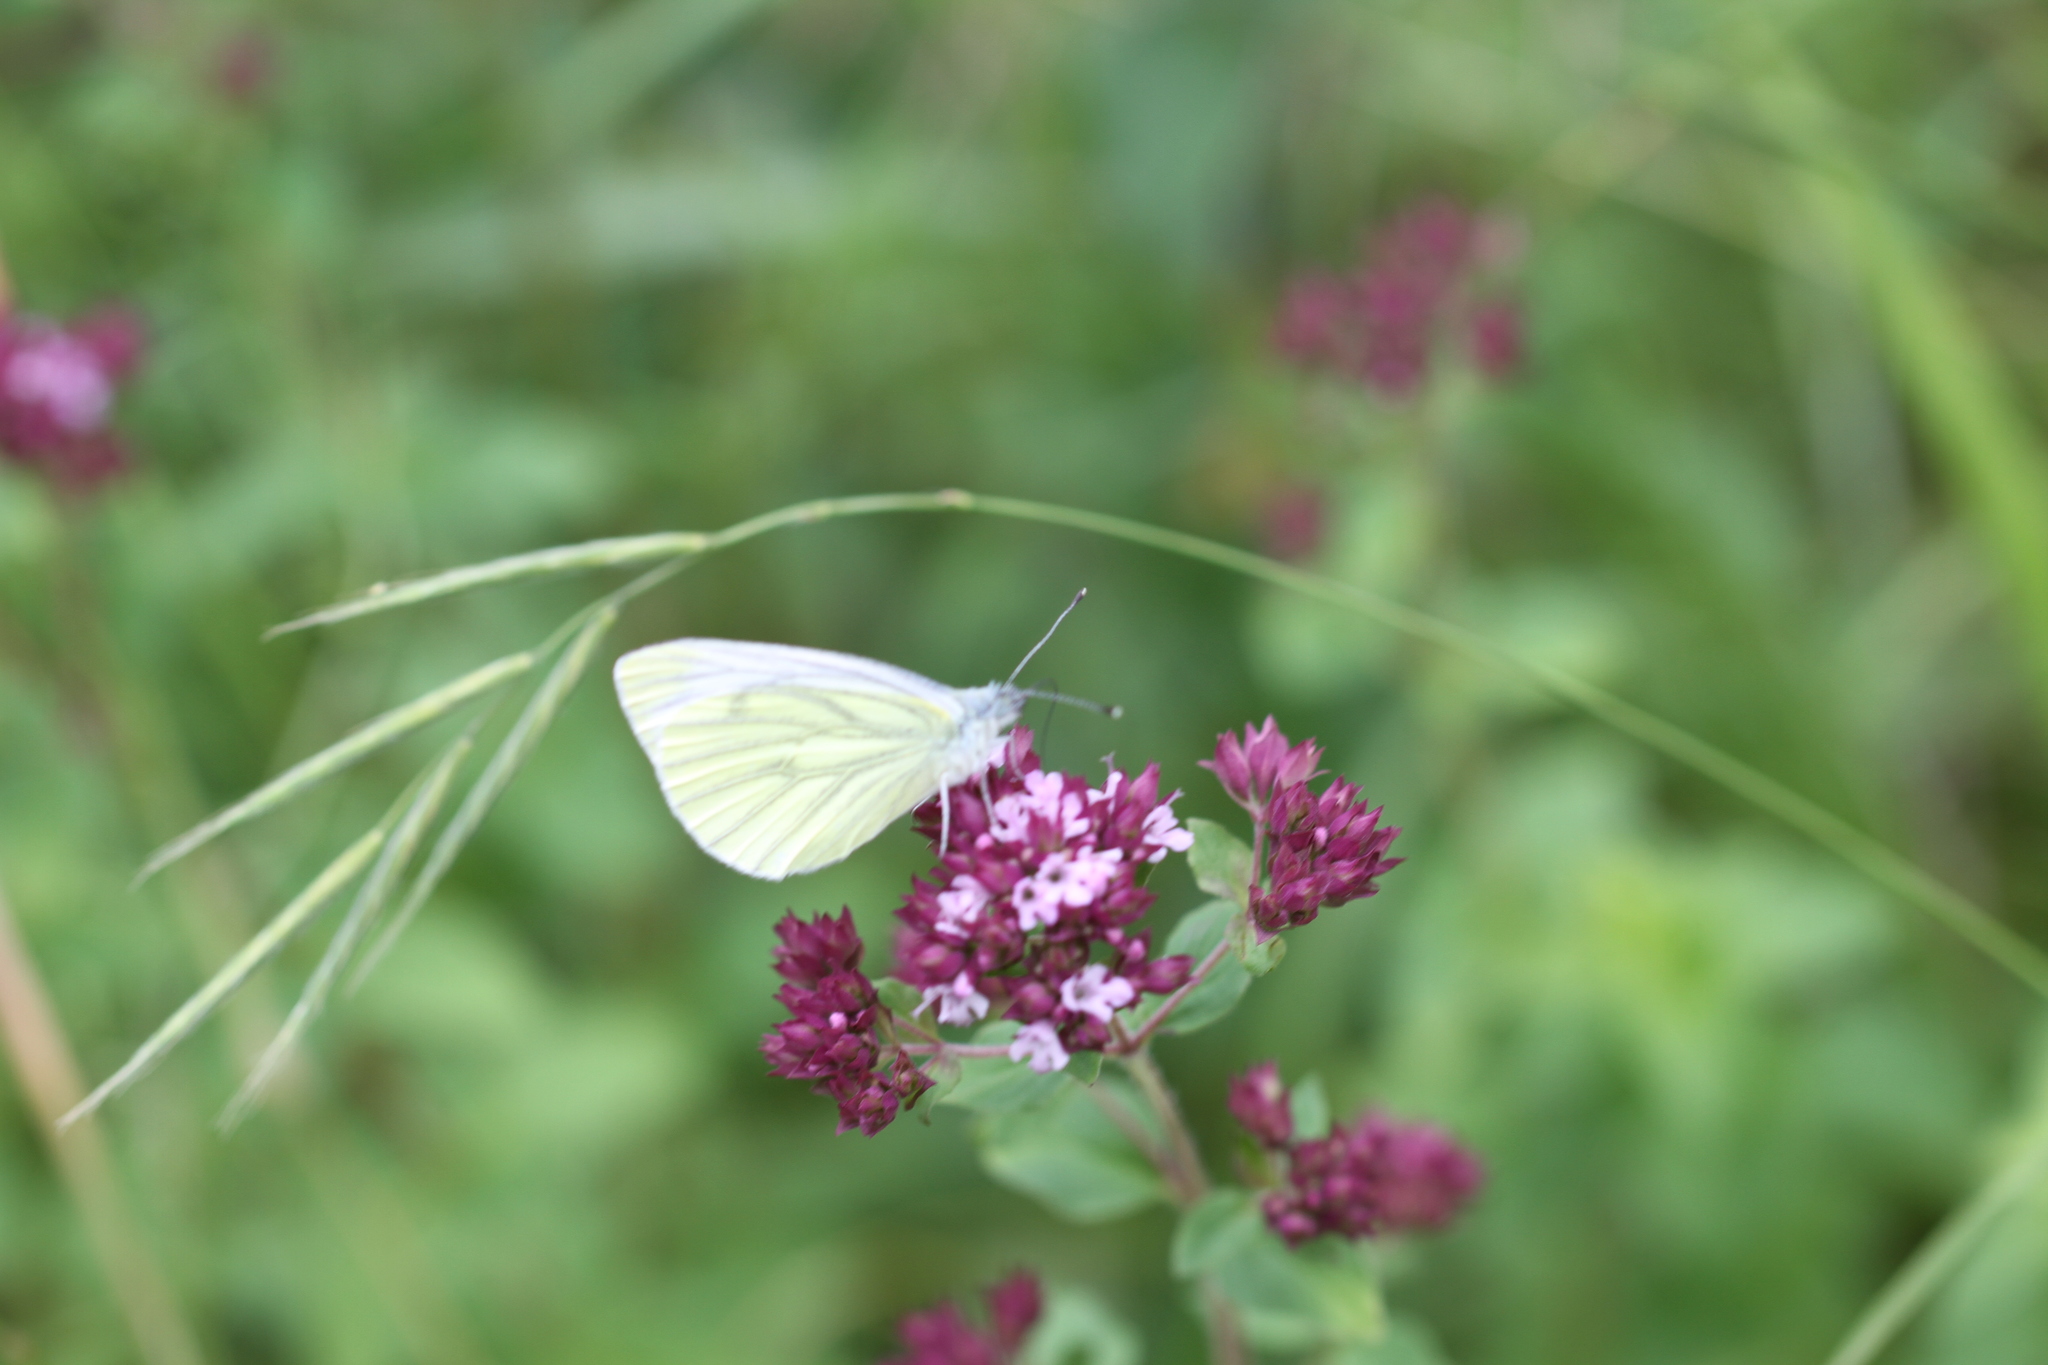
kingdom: Animalia
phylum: Arthropoda
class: Insecta
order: Lepidoptera
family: Pieridae
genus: Pieris
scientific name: Pieris napi
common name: Green-veined white
